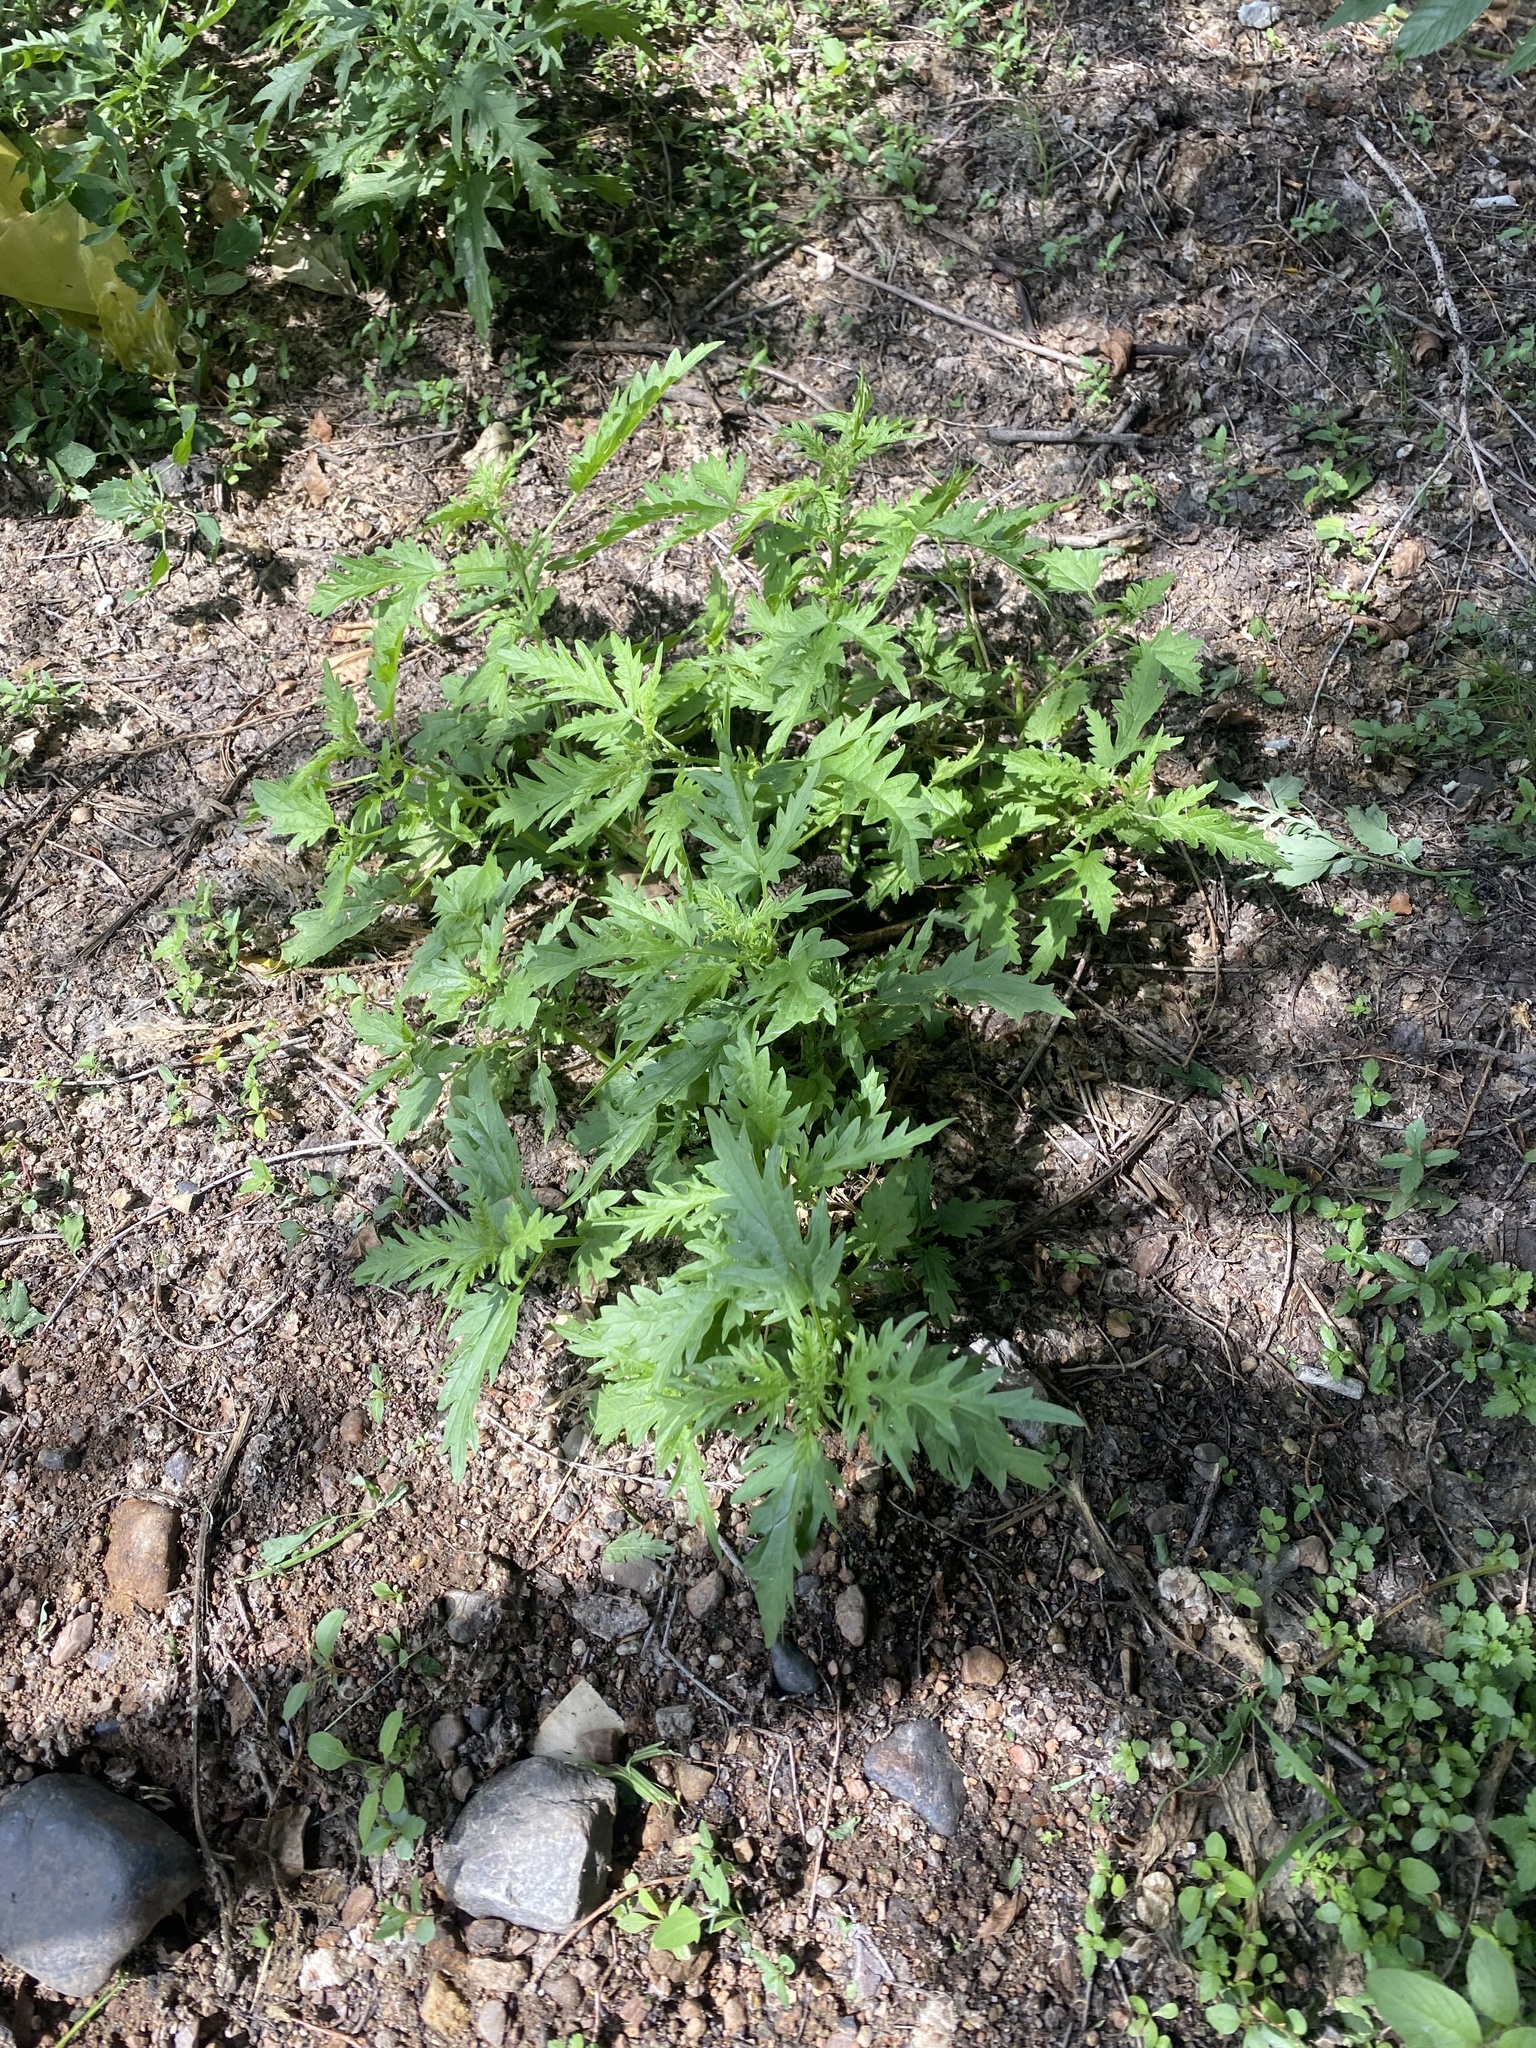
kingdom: Plantae
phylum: Tracheophyta
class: Magnoliopsida
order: Rosales
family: Urticaceae
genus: Urtica
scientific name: Urtica cannabina
